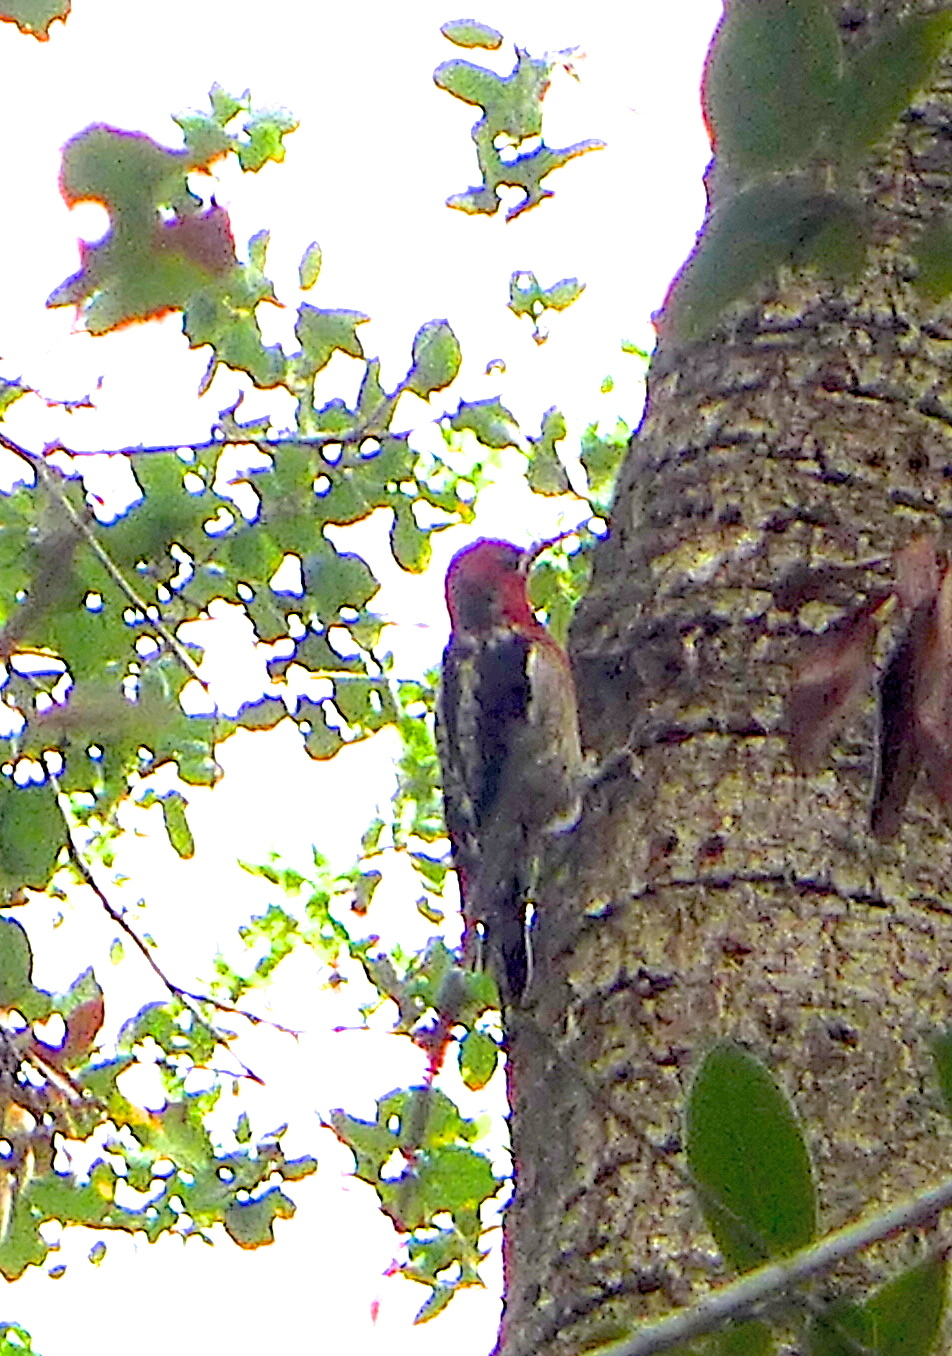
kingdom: Animalia
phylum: Chordata
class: Aves
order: Piciformes
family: Picidae
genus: Sphyrapicus
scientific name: Sphyrapicus ruber
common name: Red-breasted sapsucker
